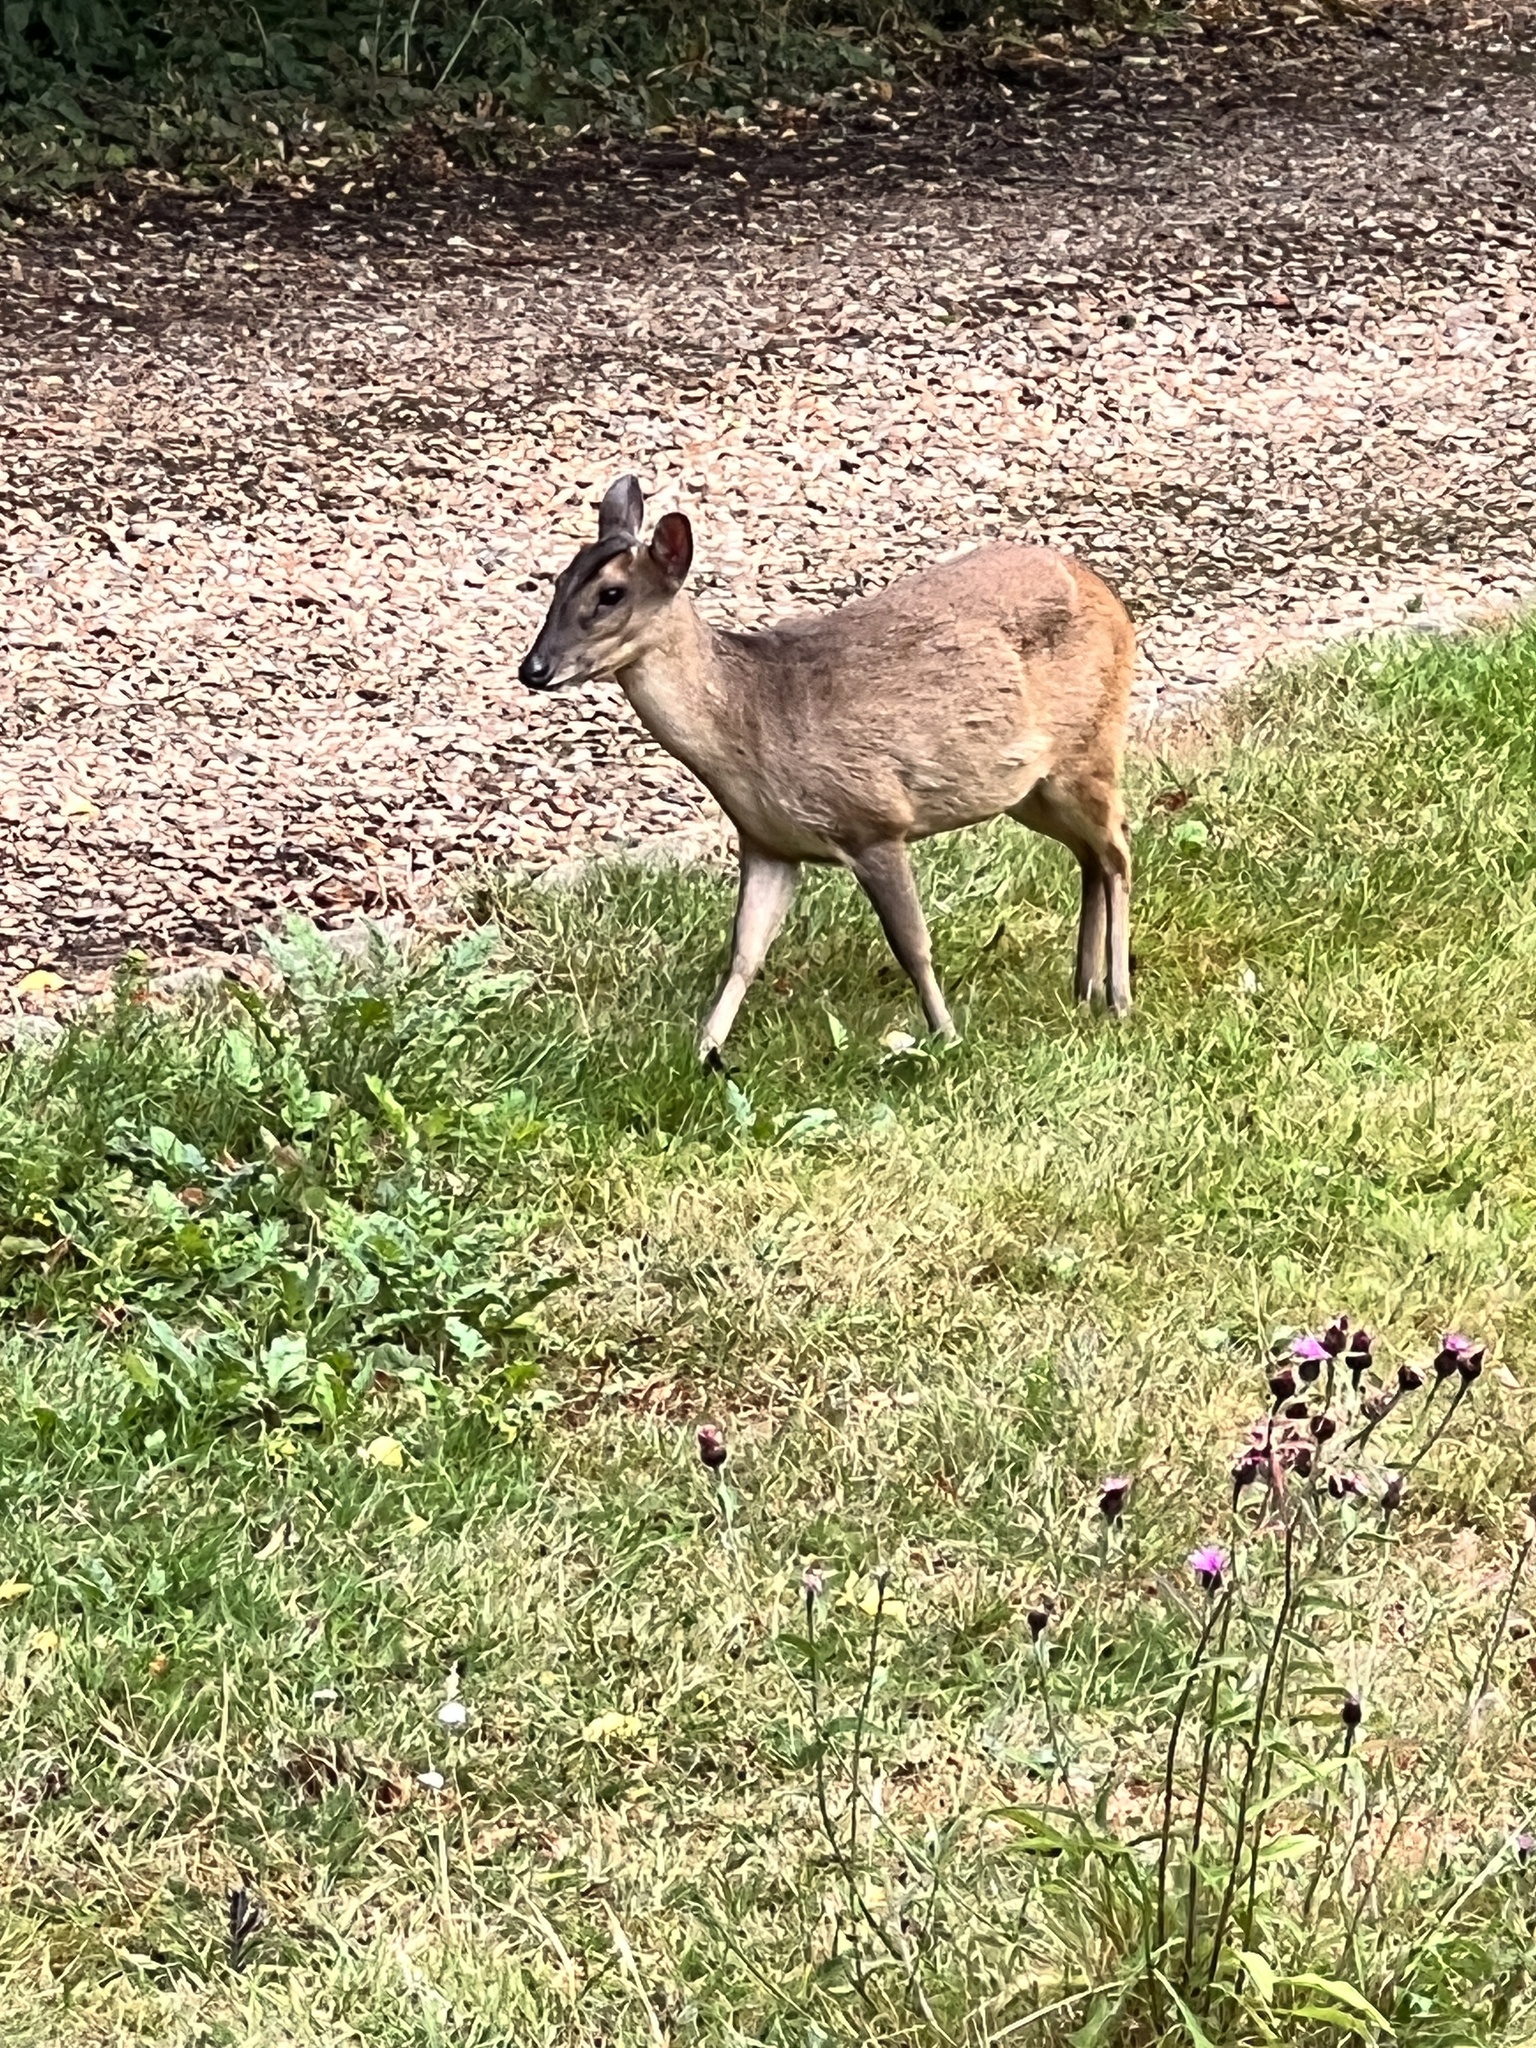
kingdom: Animalia
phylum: Chordata
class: Mammalia
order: Artiodactyla
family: Cervidae
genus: Muntiacus
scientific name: Muntiacus reevesi
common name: Reeves' muntjac
